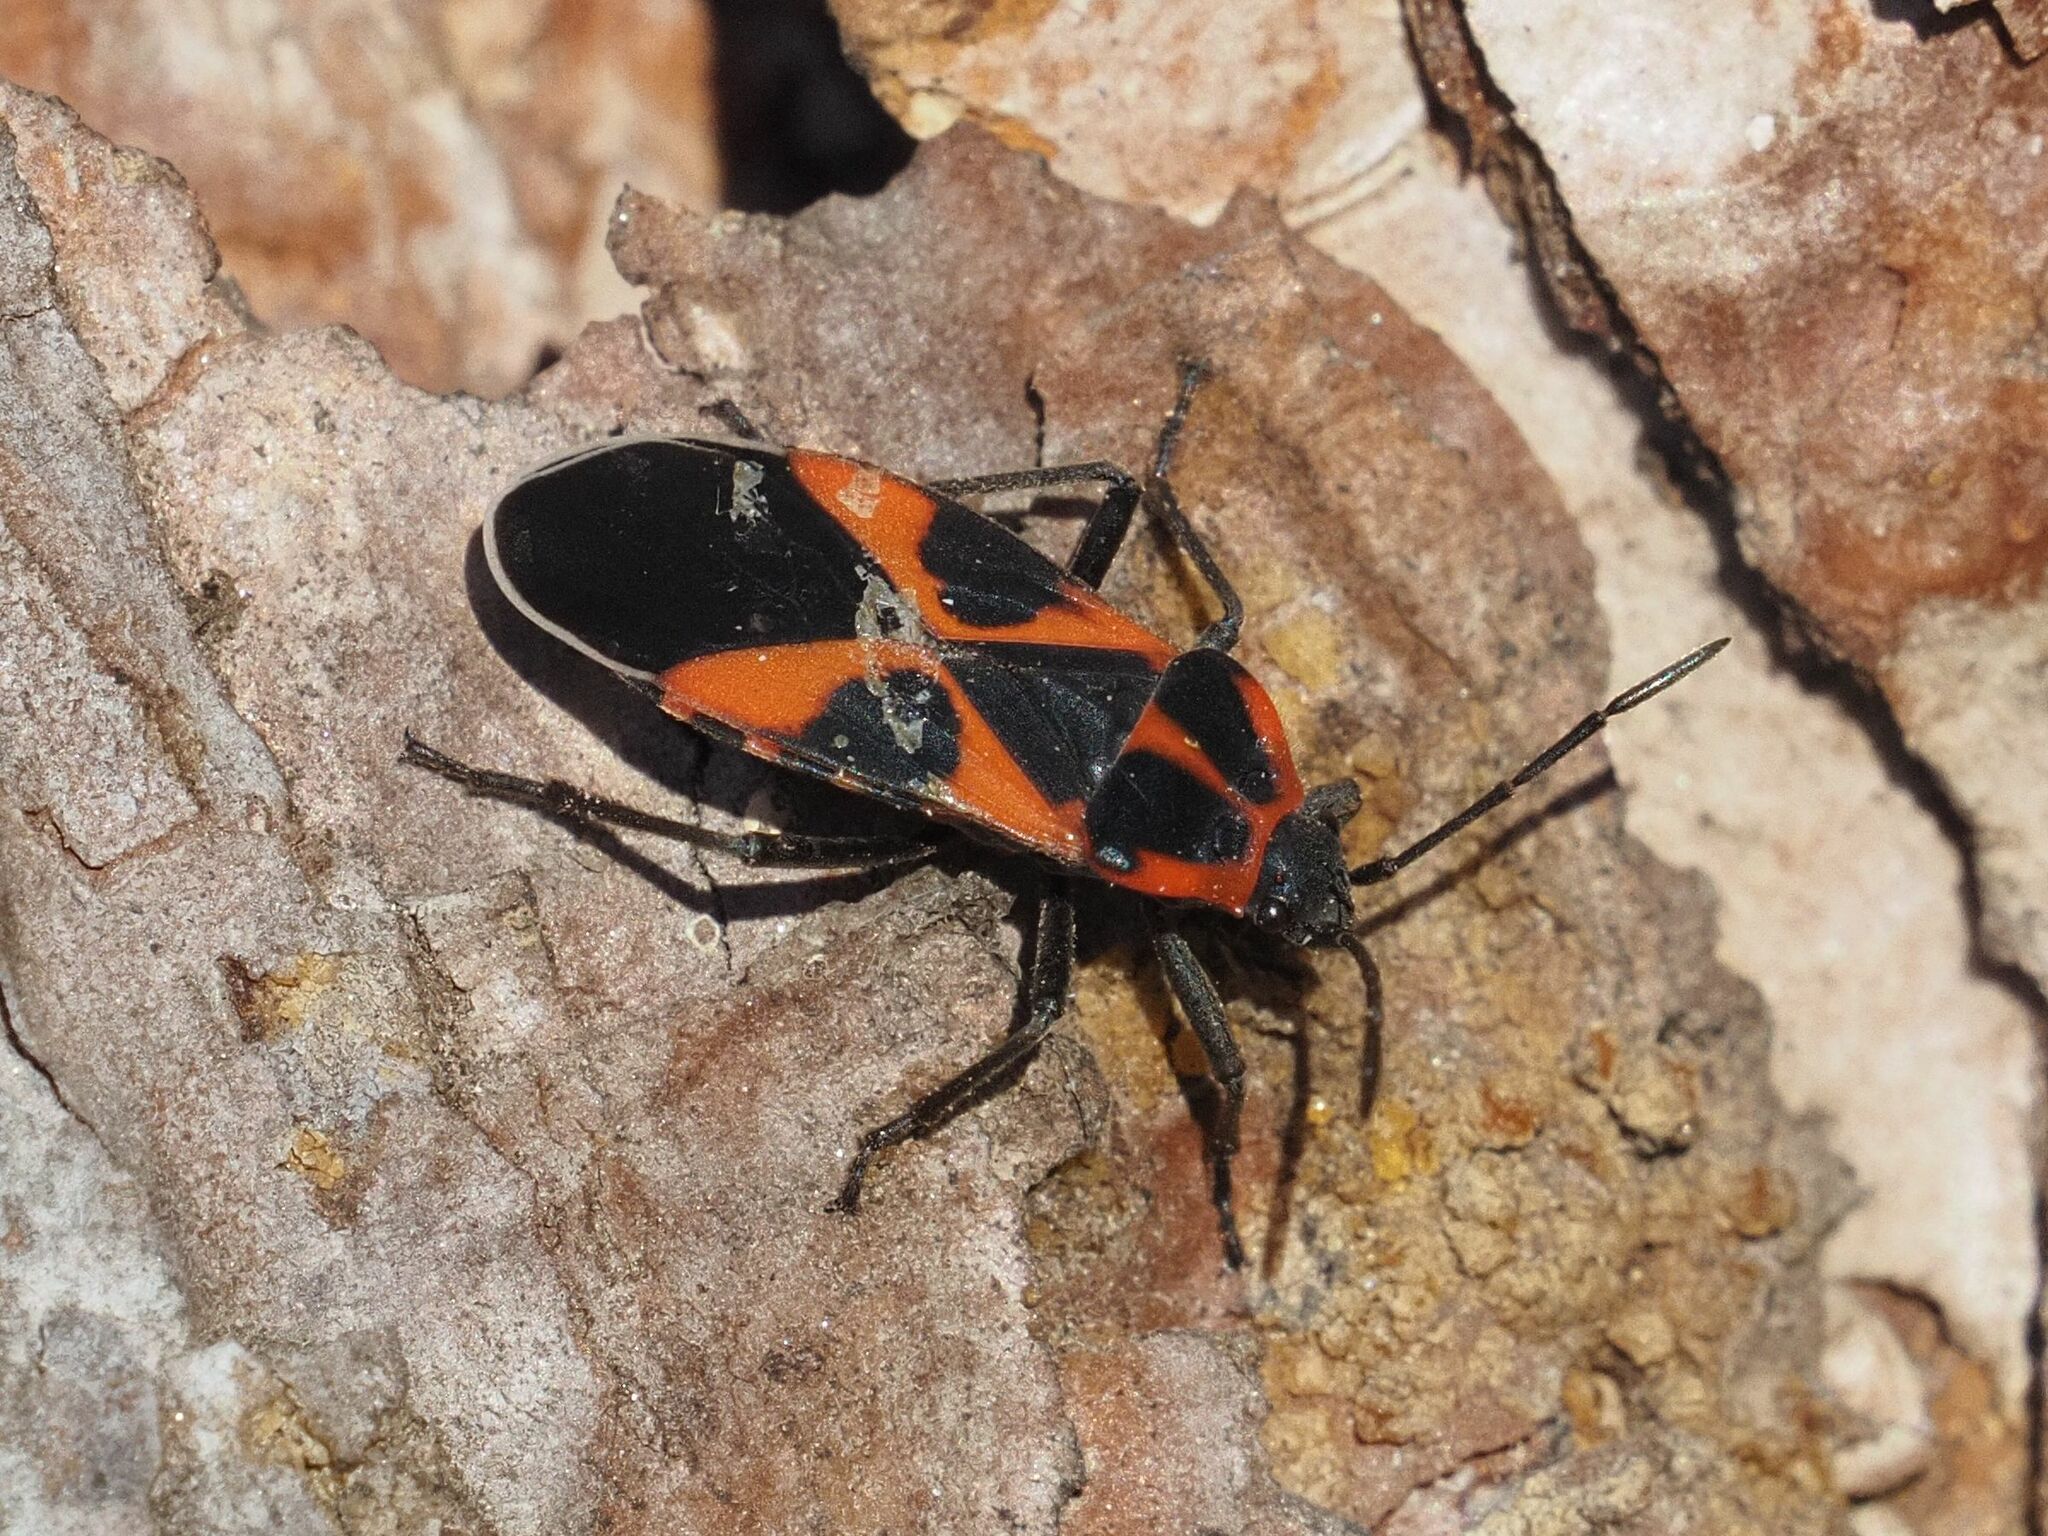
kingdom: Animalia
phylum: Arthropoda
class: Insecta
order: Hemiptera
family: Lygaeidae
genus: Tropidothorax
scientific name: Tropidothorax leucopterus
